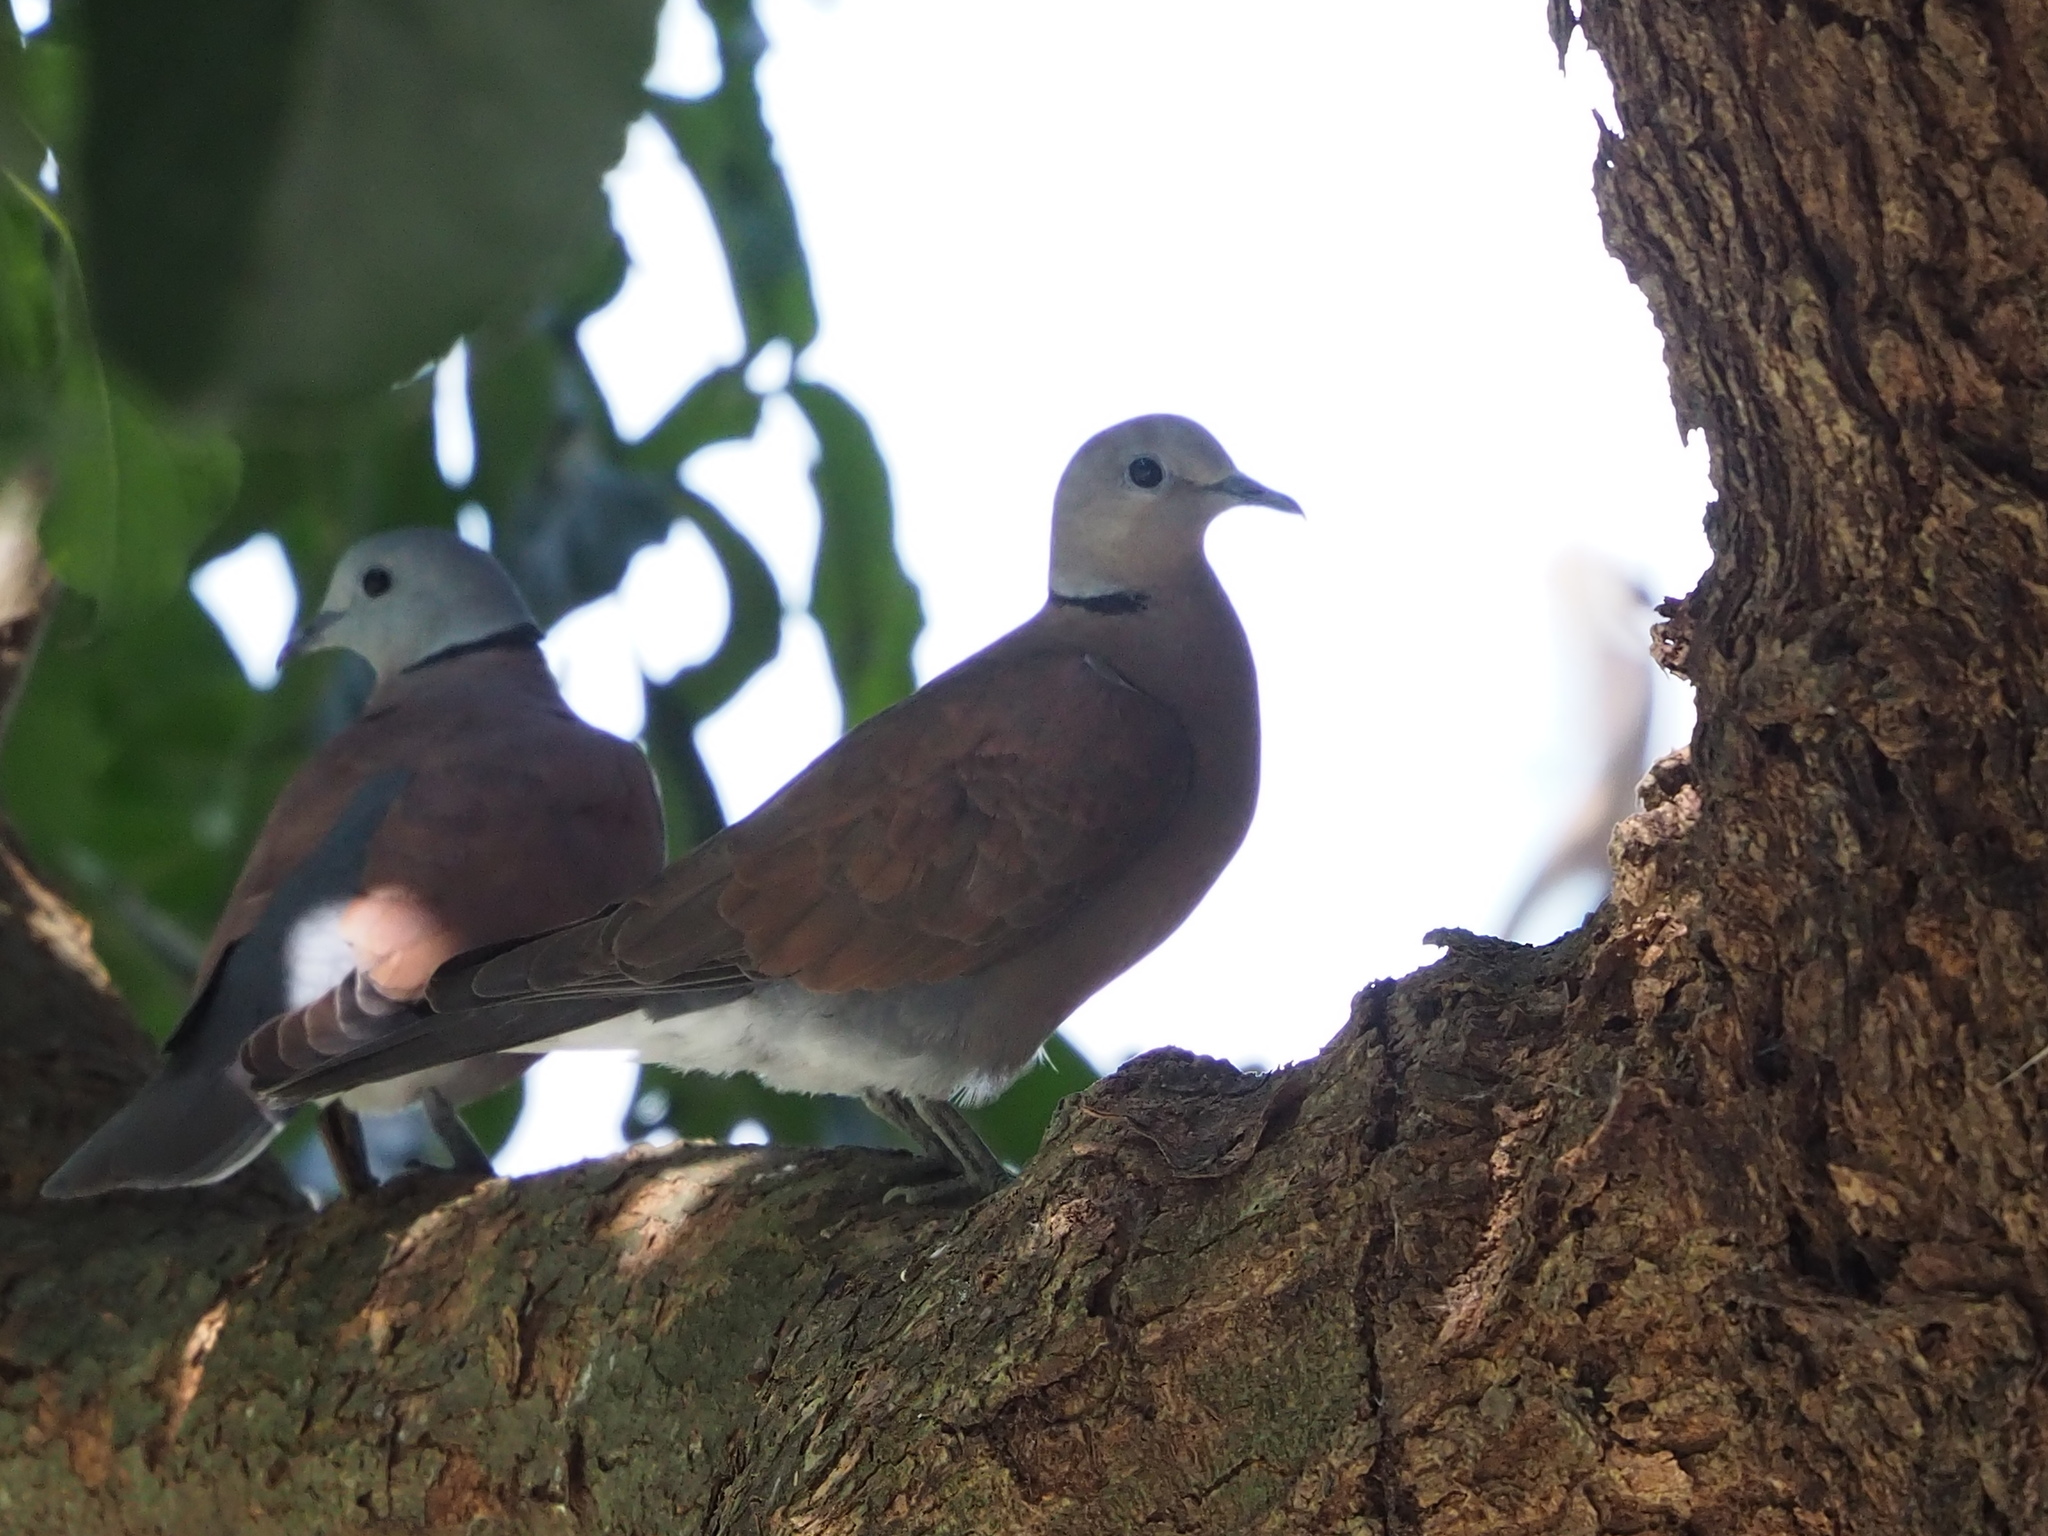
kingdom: Animalia
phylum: Chordata
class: Aves
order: Columbiformes
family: Columbidae
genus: Streptopelia
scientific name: Streptopelia tranquebarica
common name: Red turtle dove
